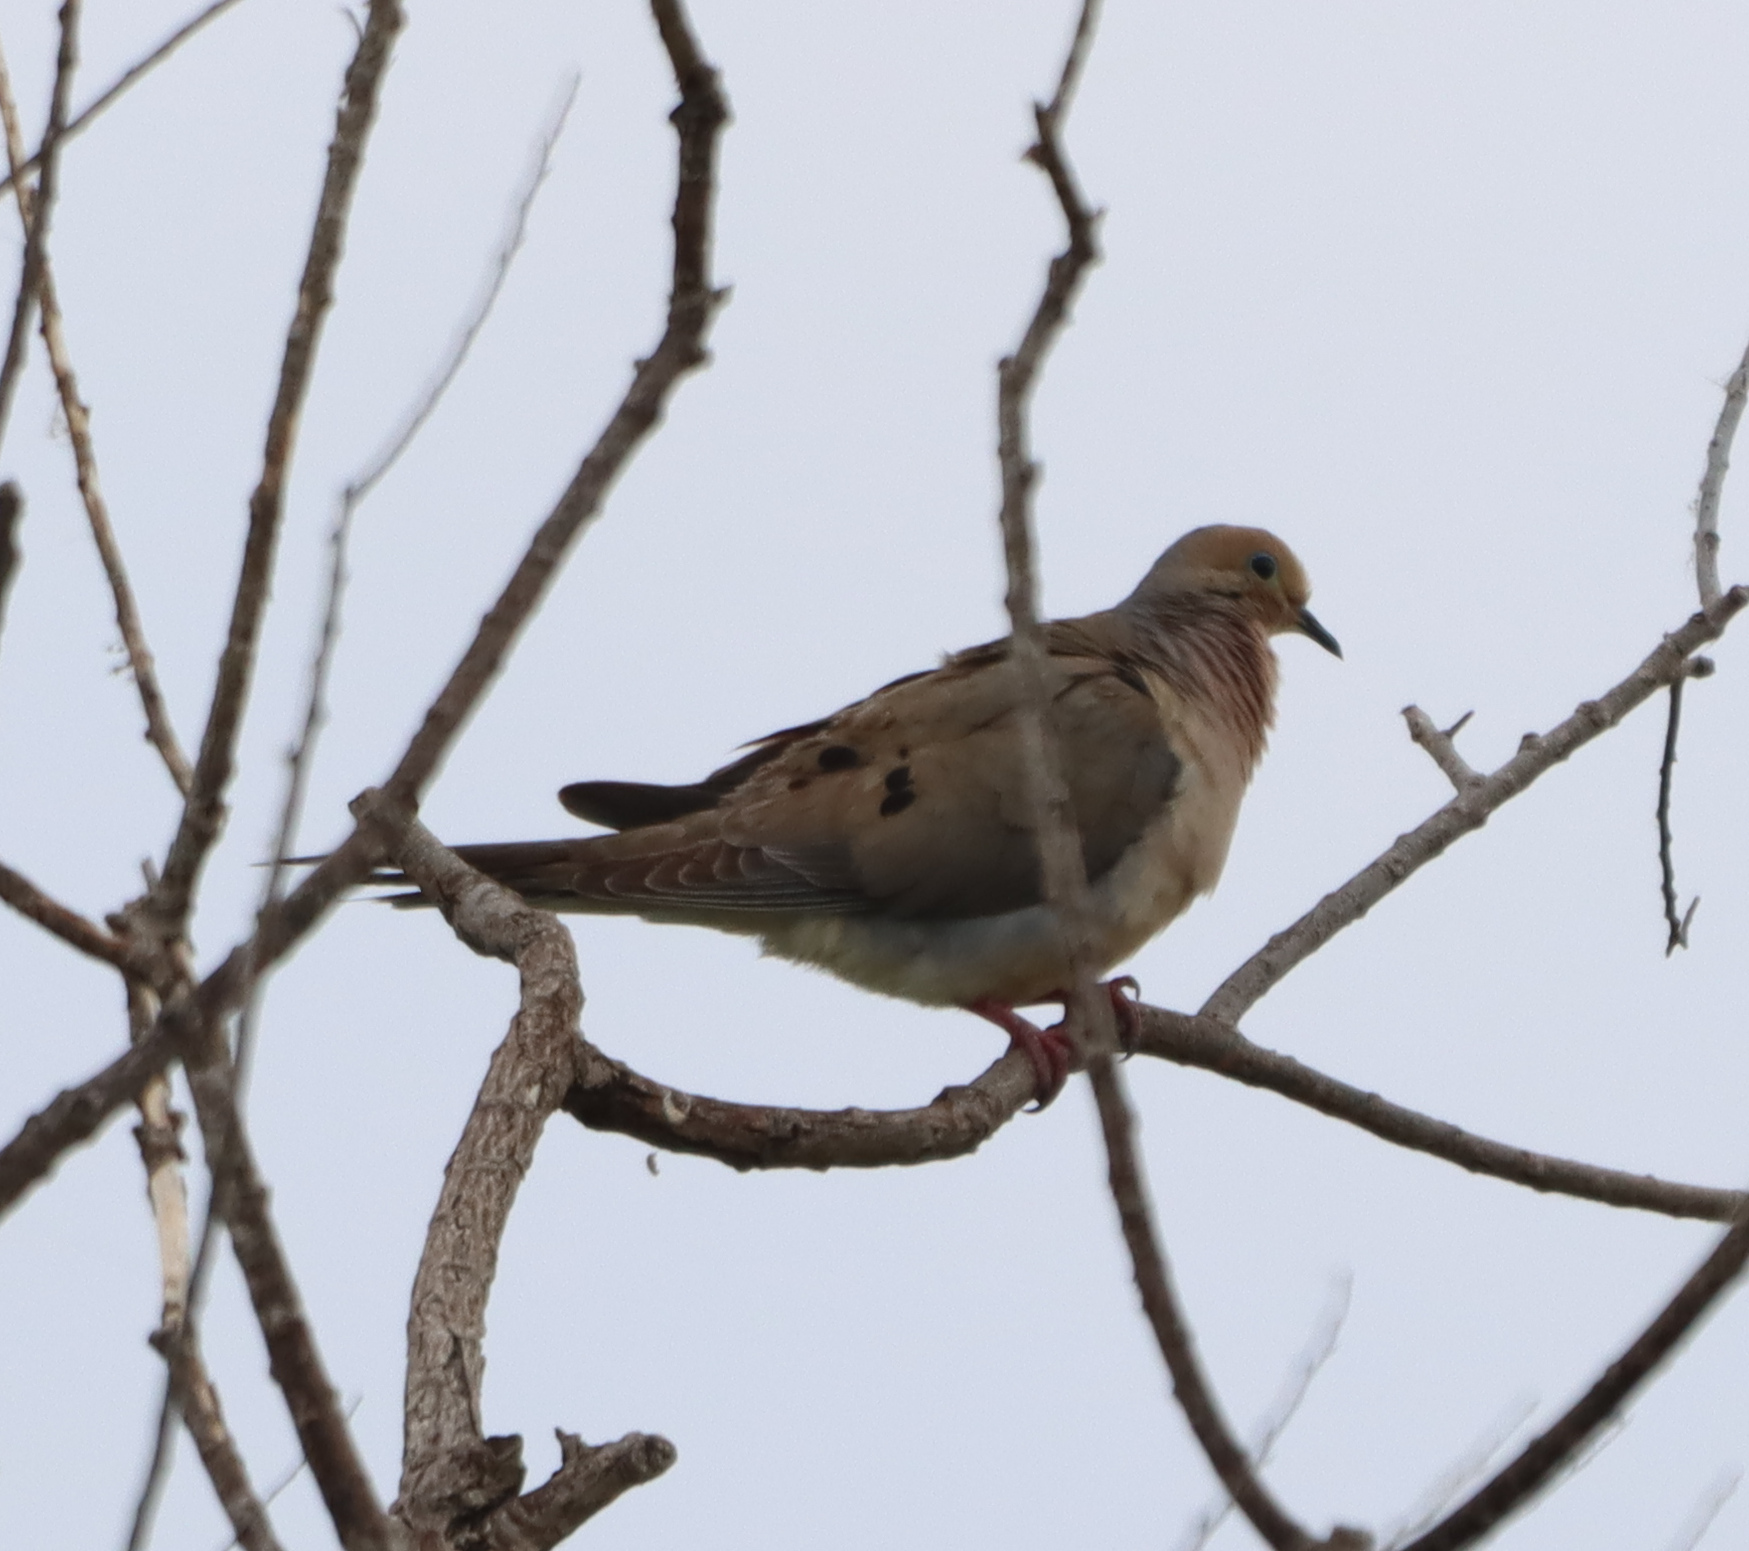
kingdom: Animalia
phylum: Chordata
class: Aves
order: Columbiformes
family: Columbidae
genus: Zenaida
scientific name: Zenaida macroura
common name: Mourning dove
